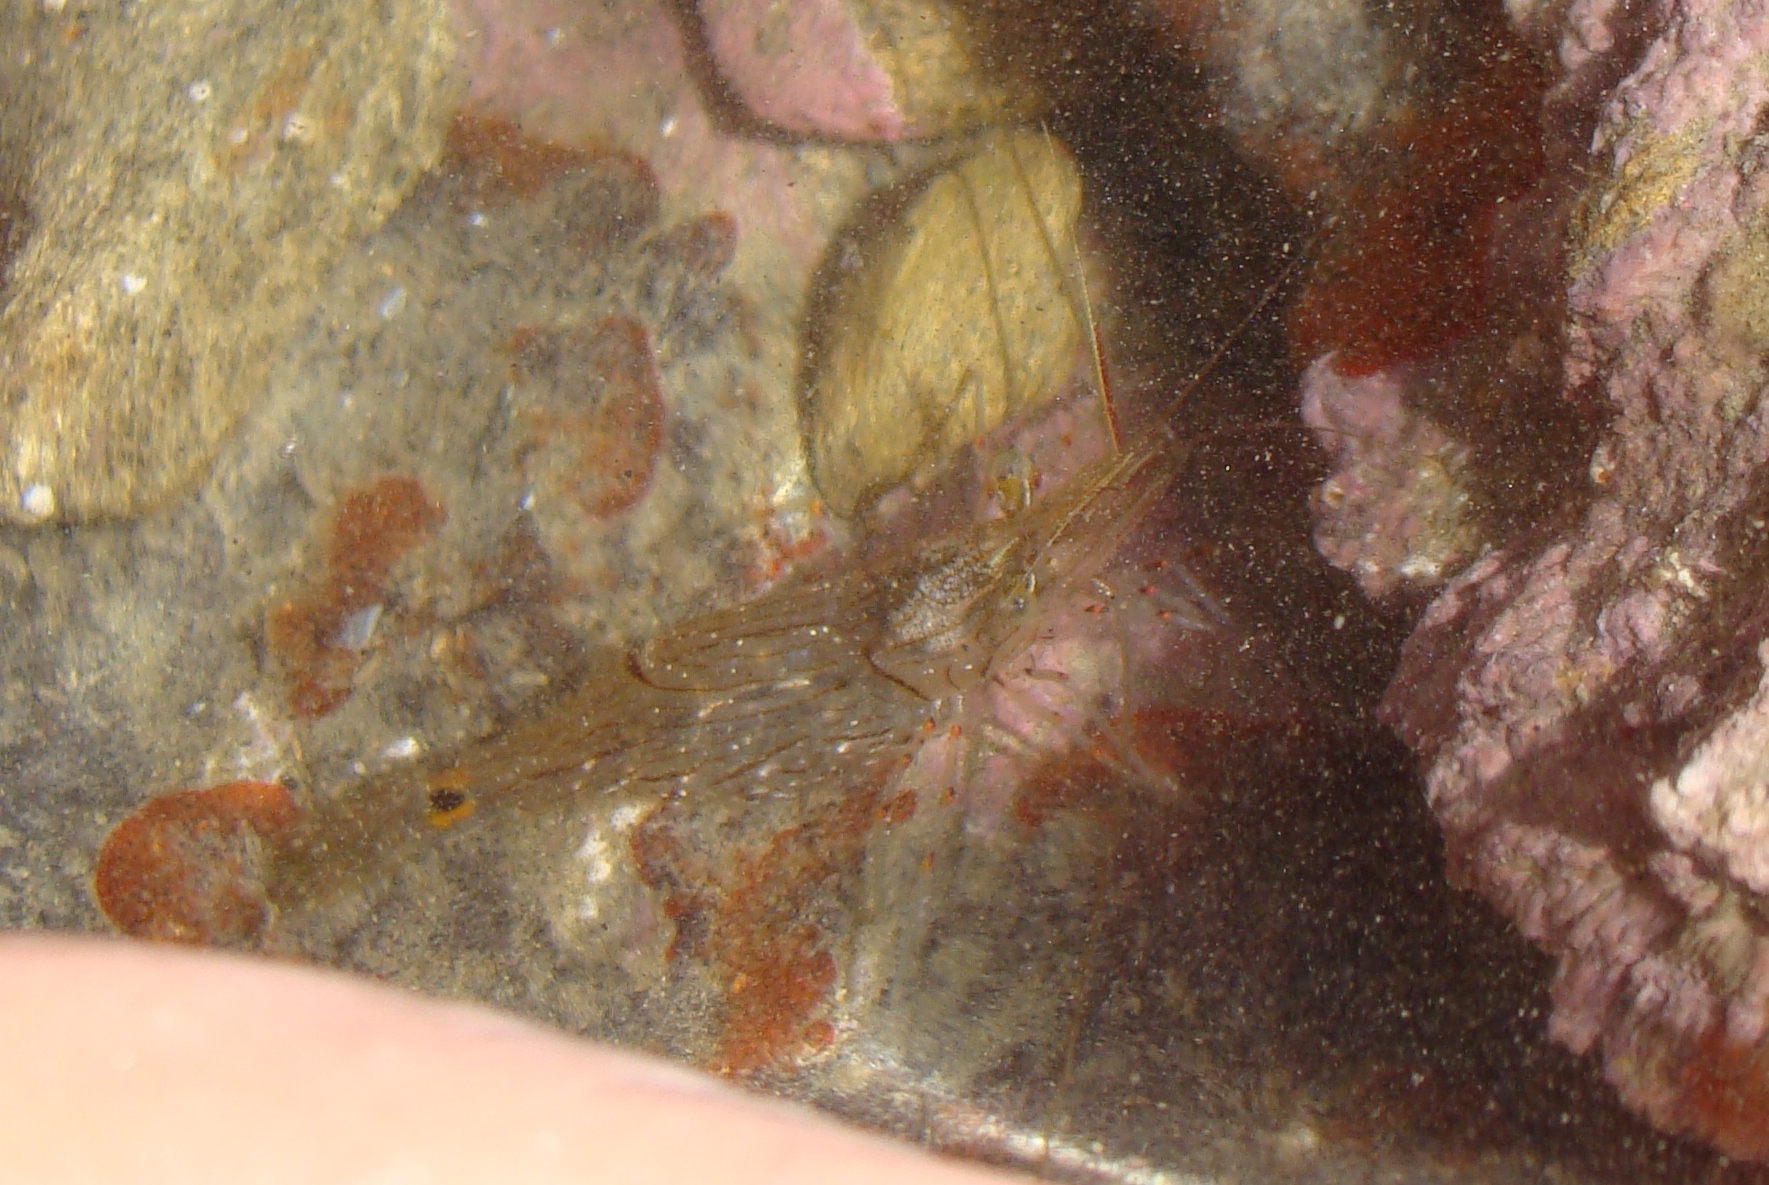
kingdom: Animalia
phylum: Arthropoda
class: Malacostraca
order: Decapoda
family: Palaemonidae
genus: Palaemon
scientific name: Palaemon affinis
